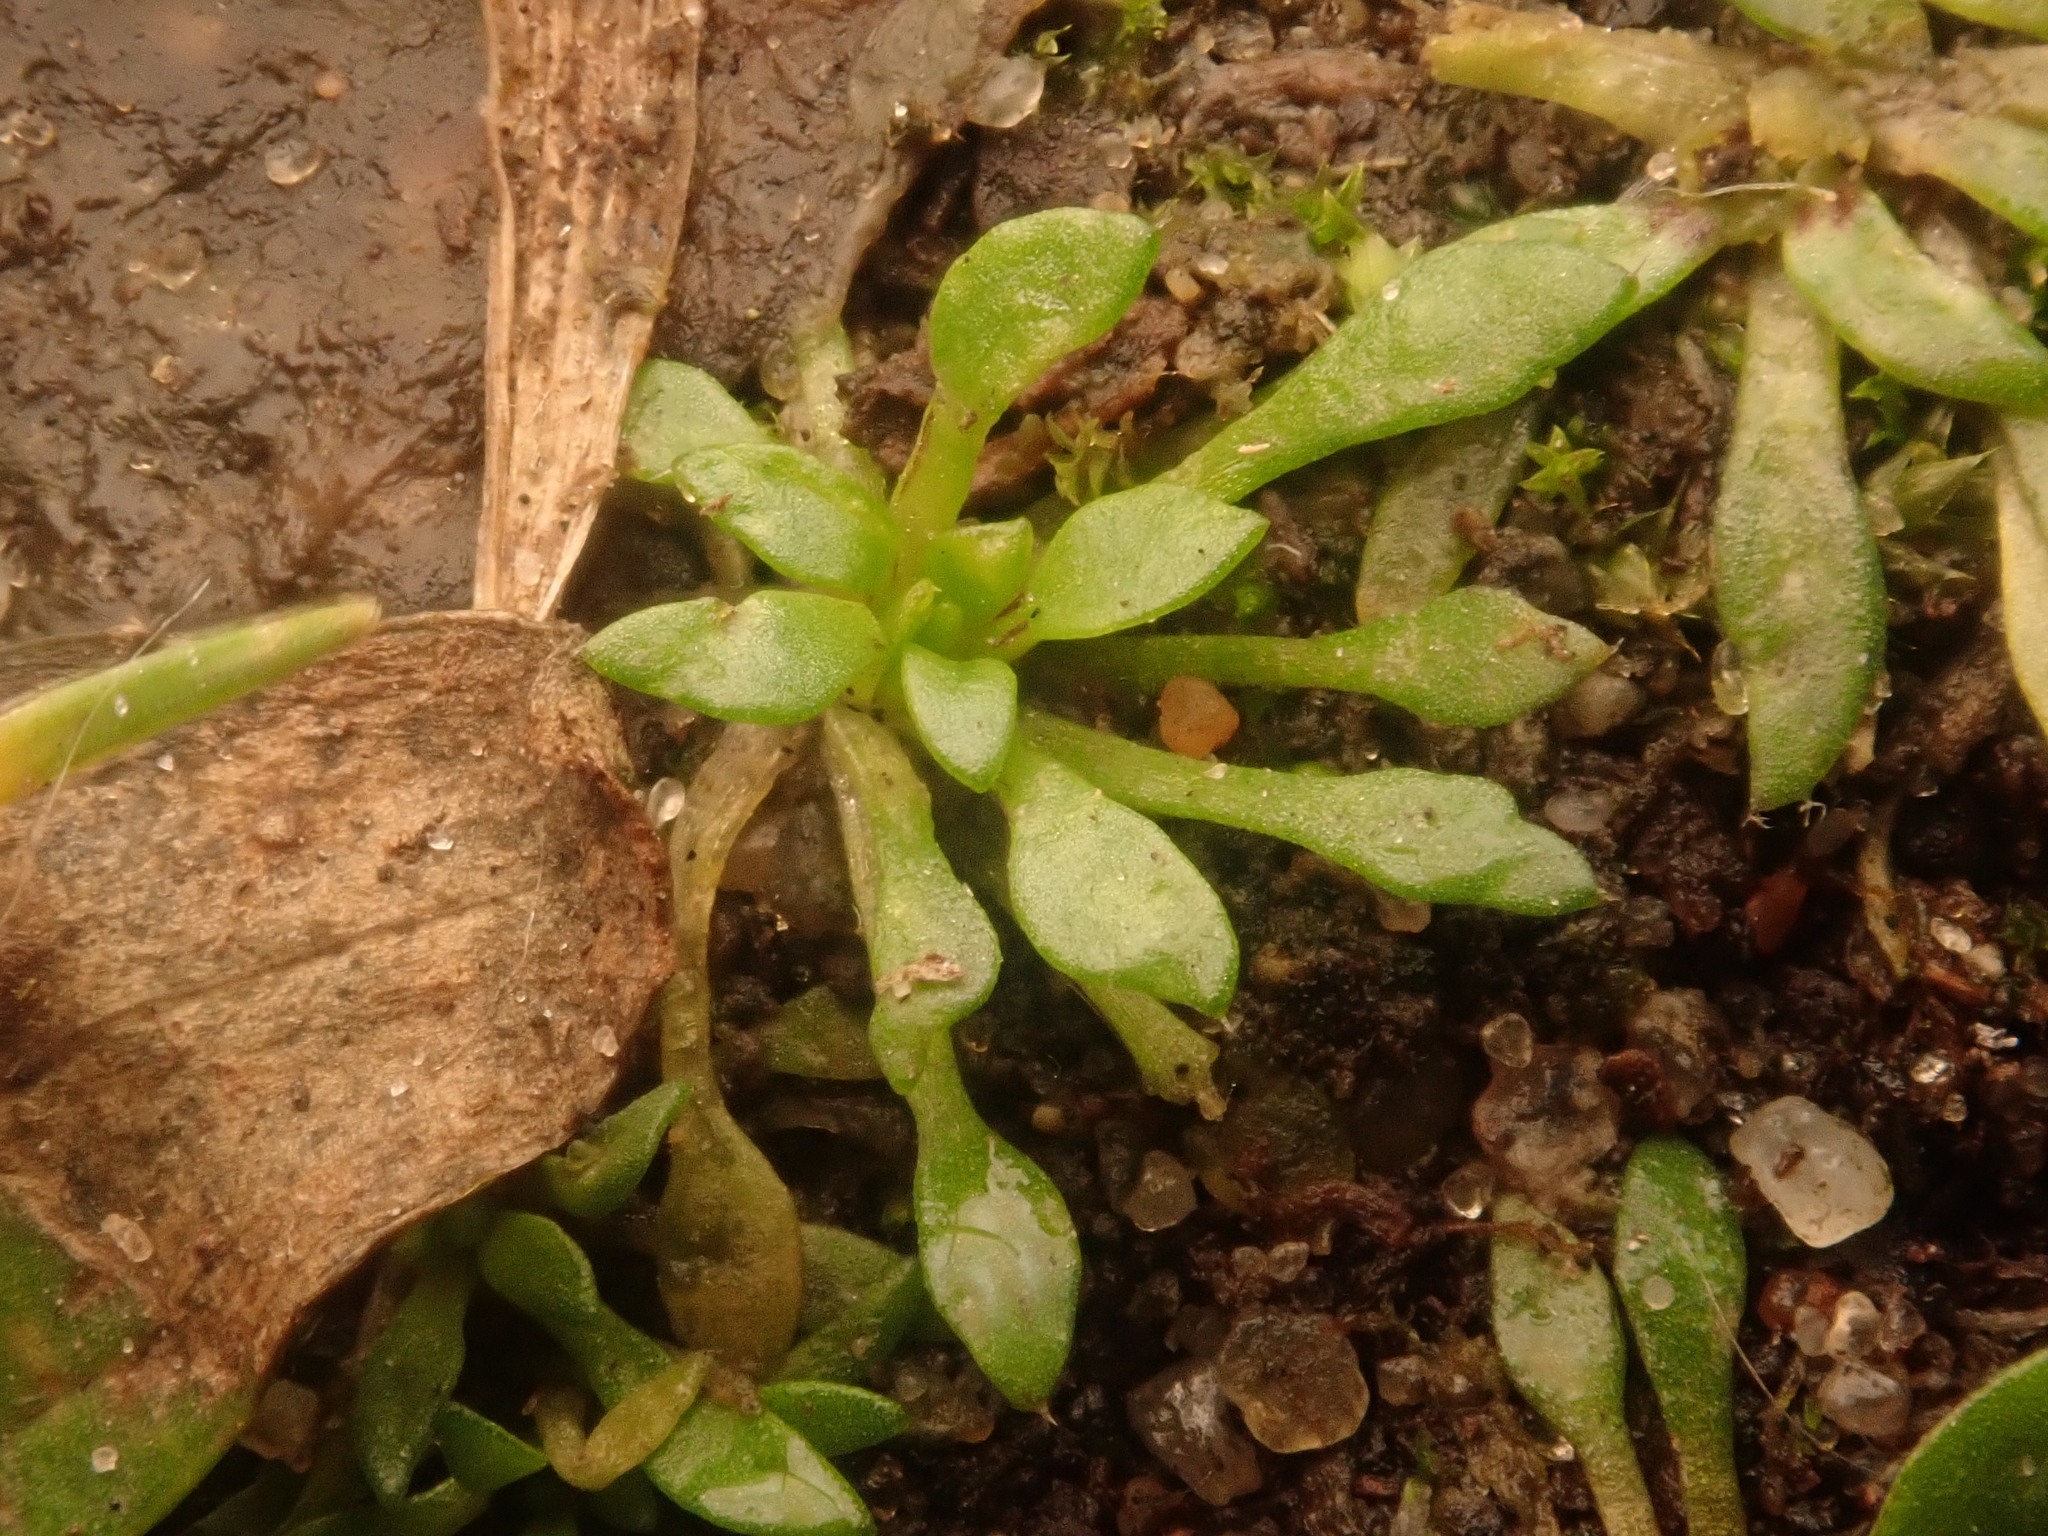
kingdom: Plantae
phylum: Tracheophyta
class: Magnoliopsida
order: Brassicales
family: Brassicaceae
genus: Draba
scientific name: Draba verna
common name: Spring draba
